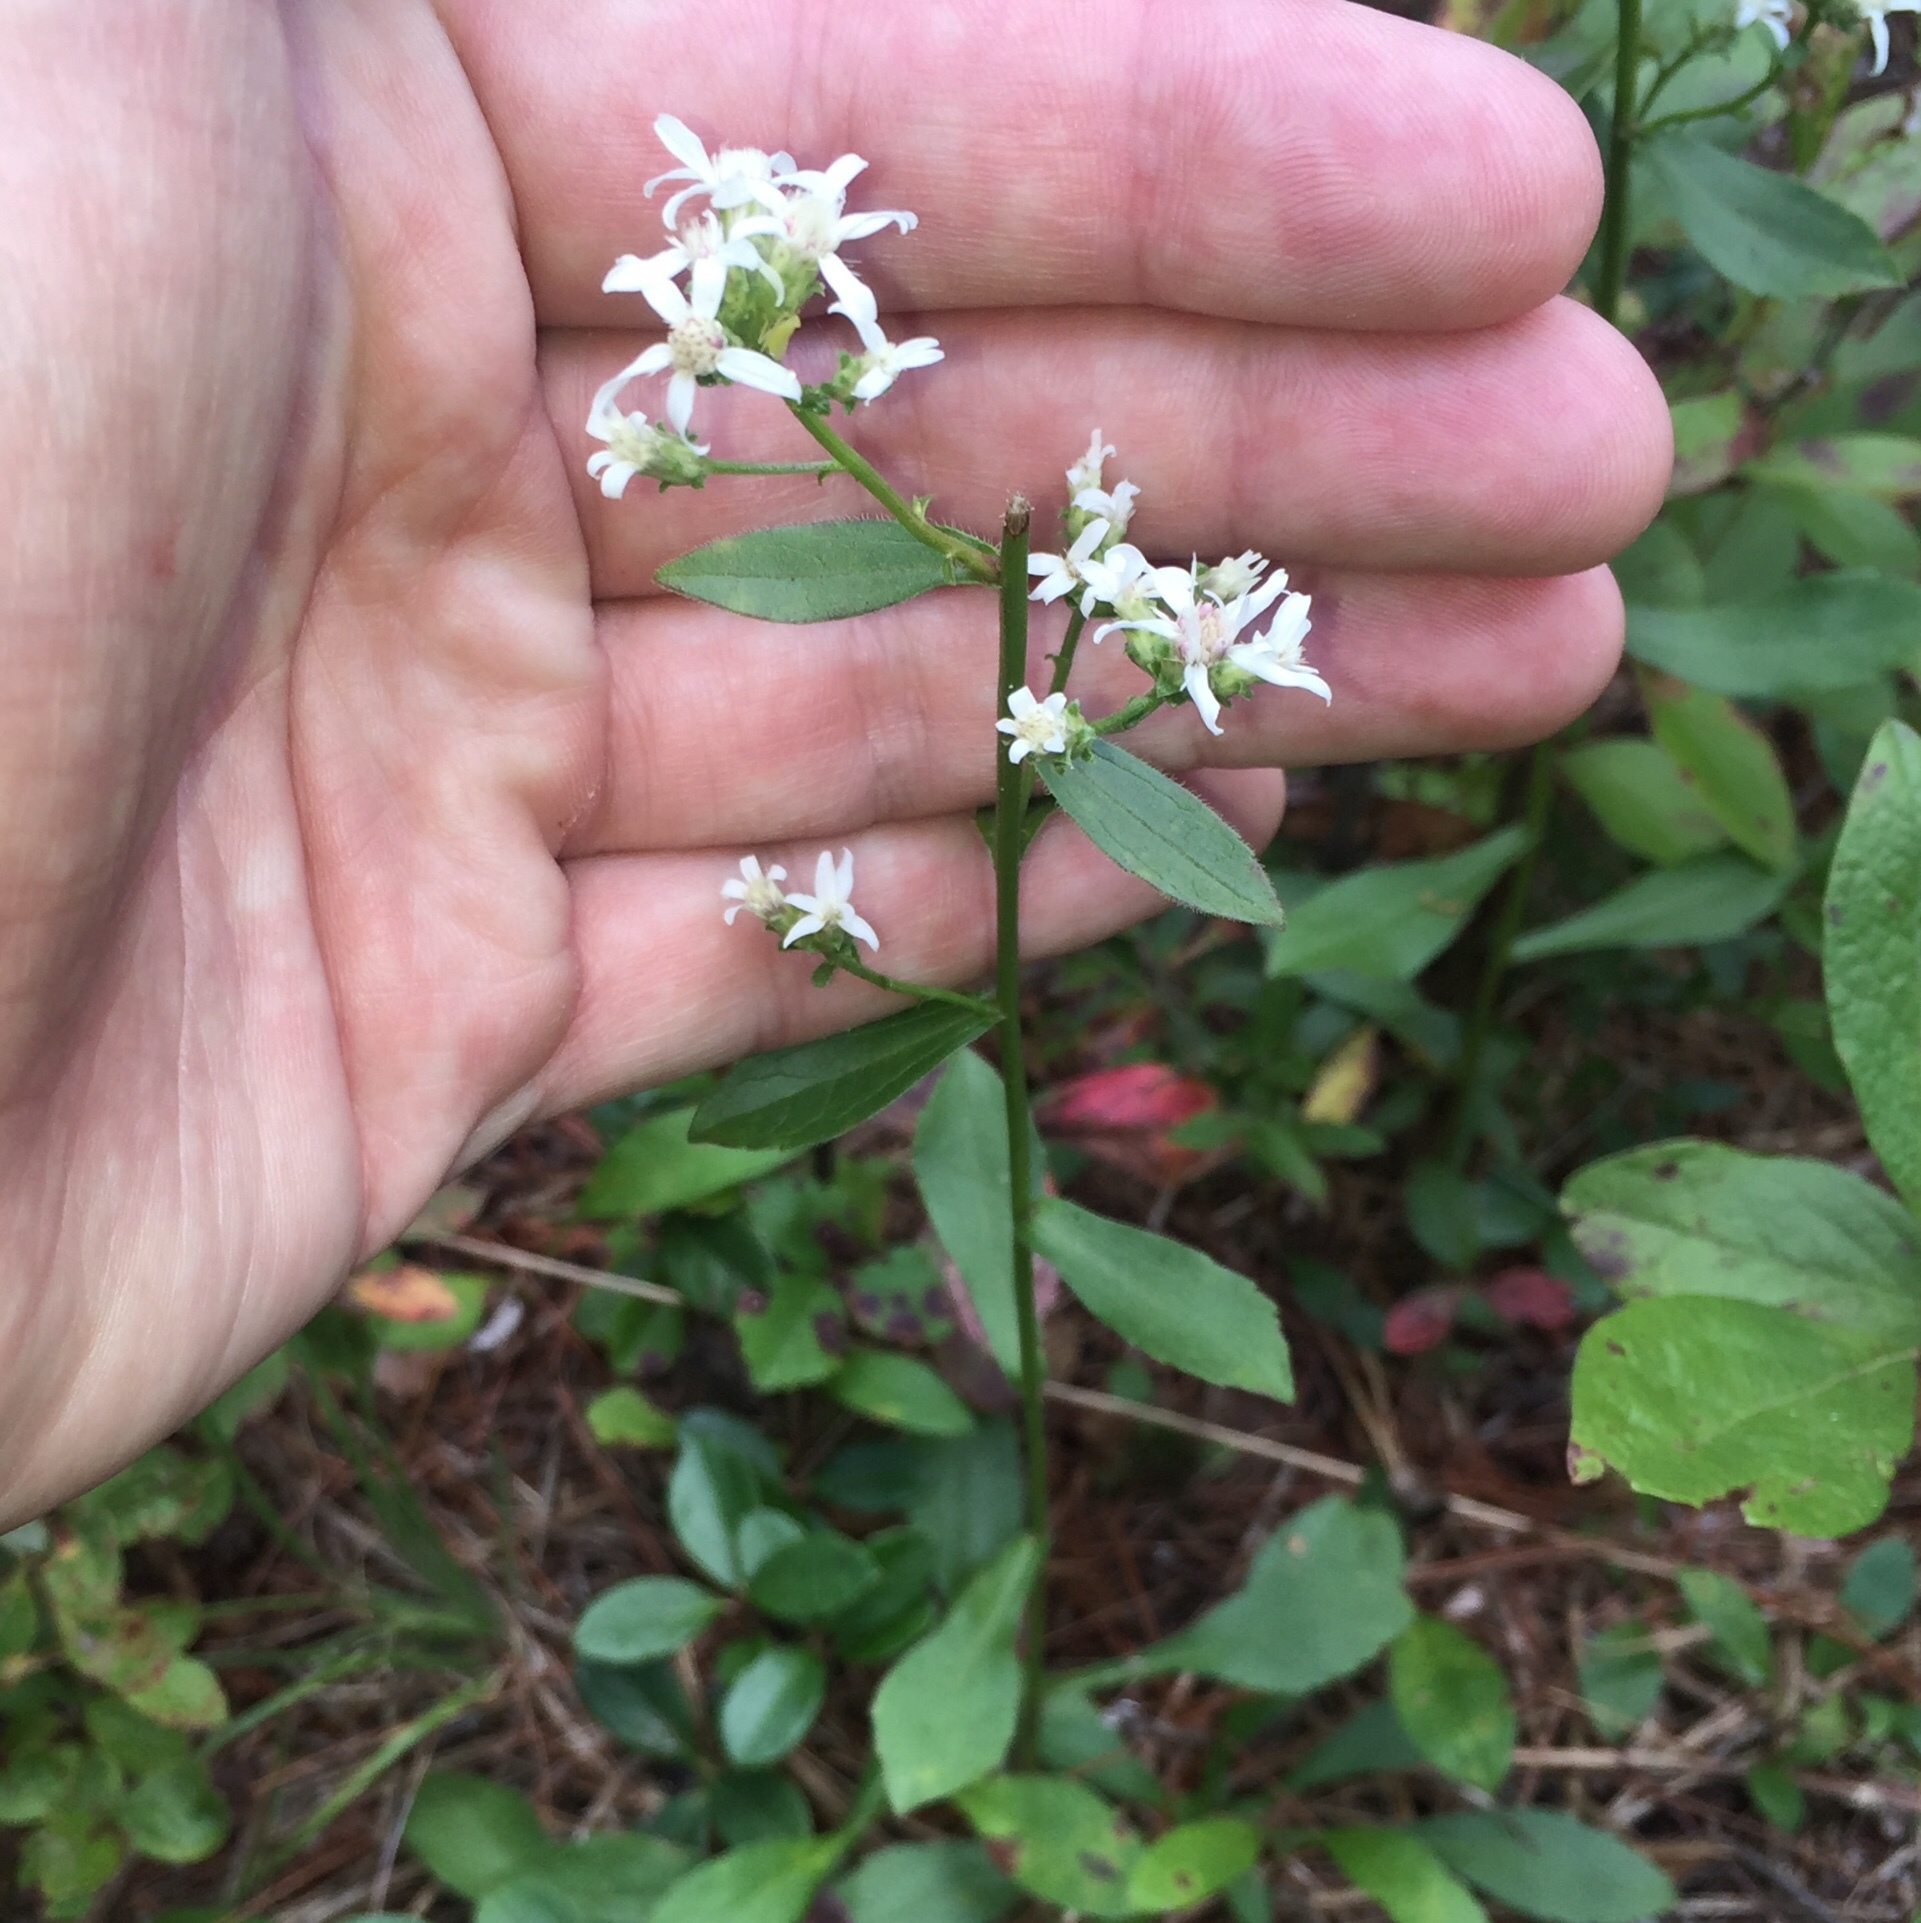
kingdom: Plantae
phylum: Tracheophyta
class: Magnoliopsida
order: Asterales
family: Asteraceae
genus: Sericocarpus
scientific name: Sericocarpus asteroides
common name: Toothed white-top aster
